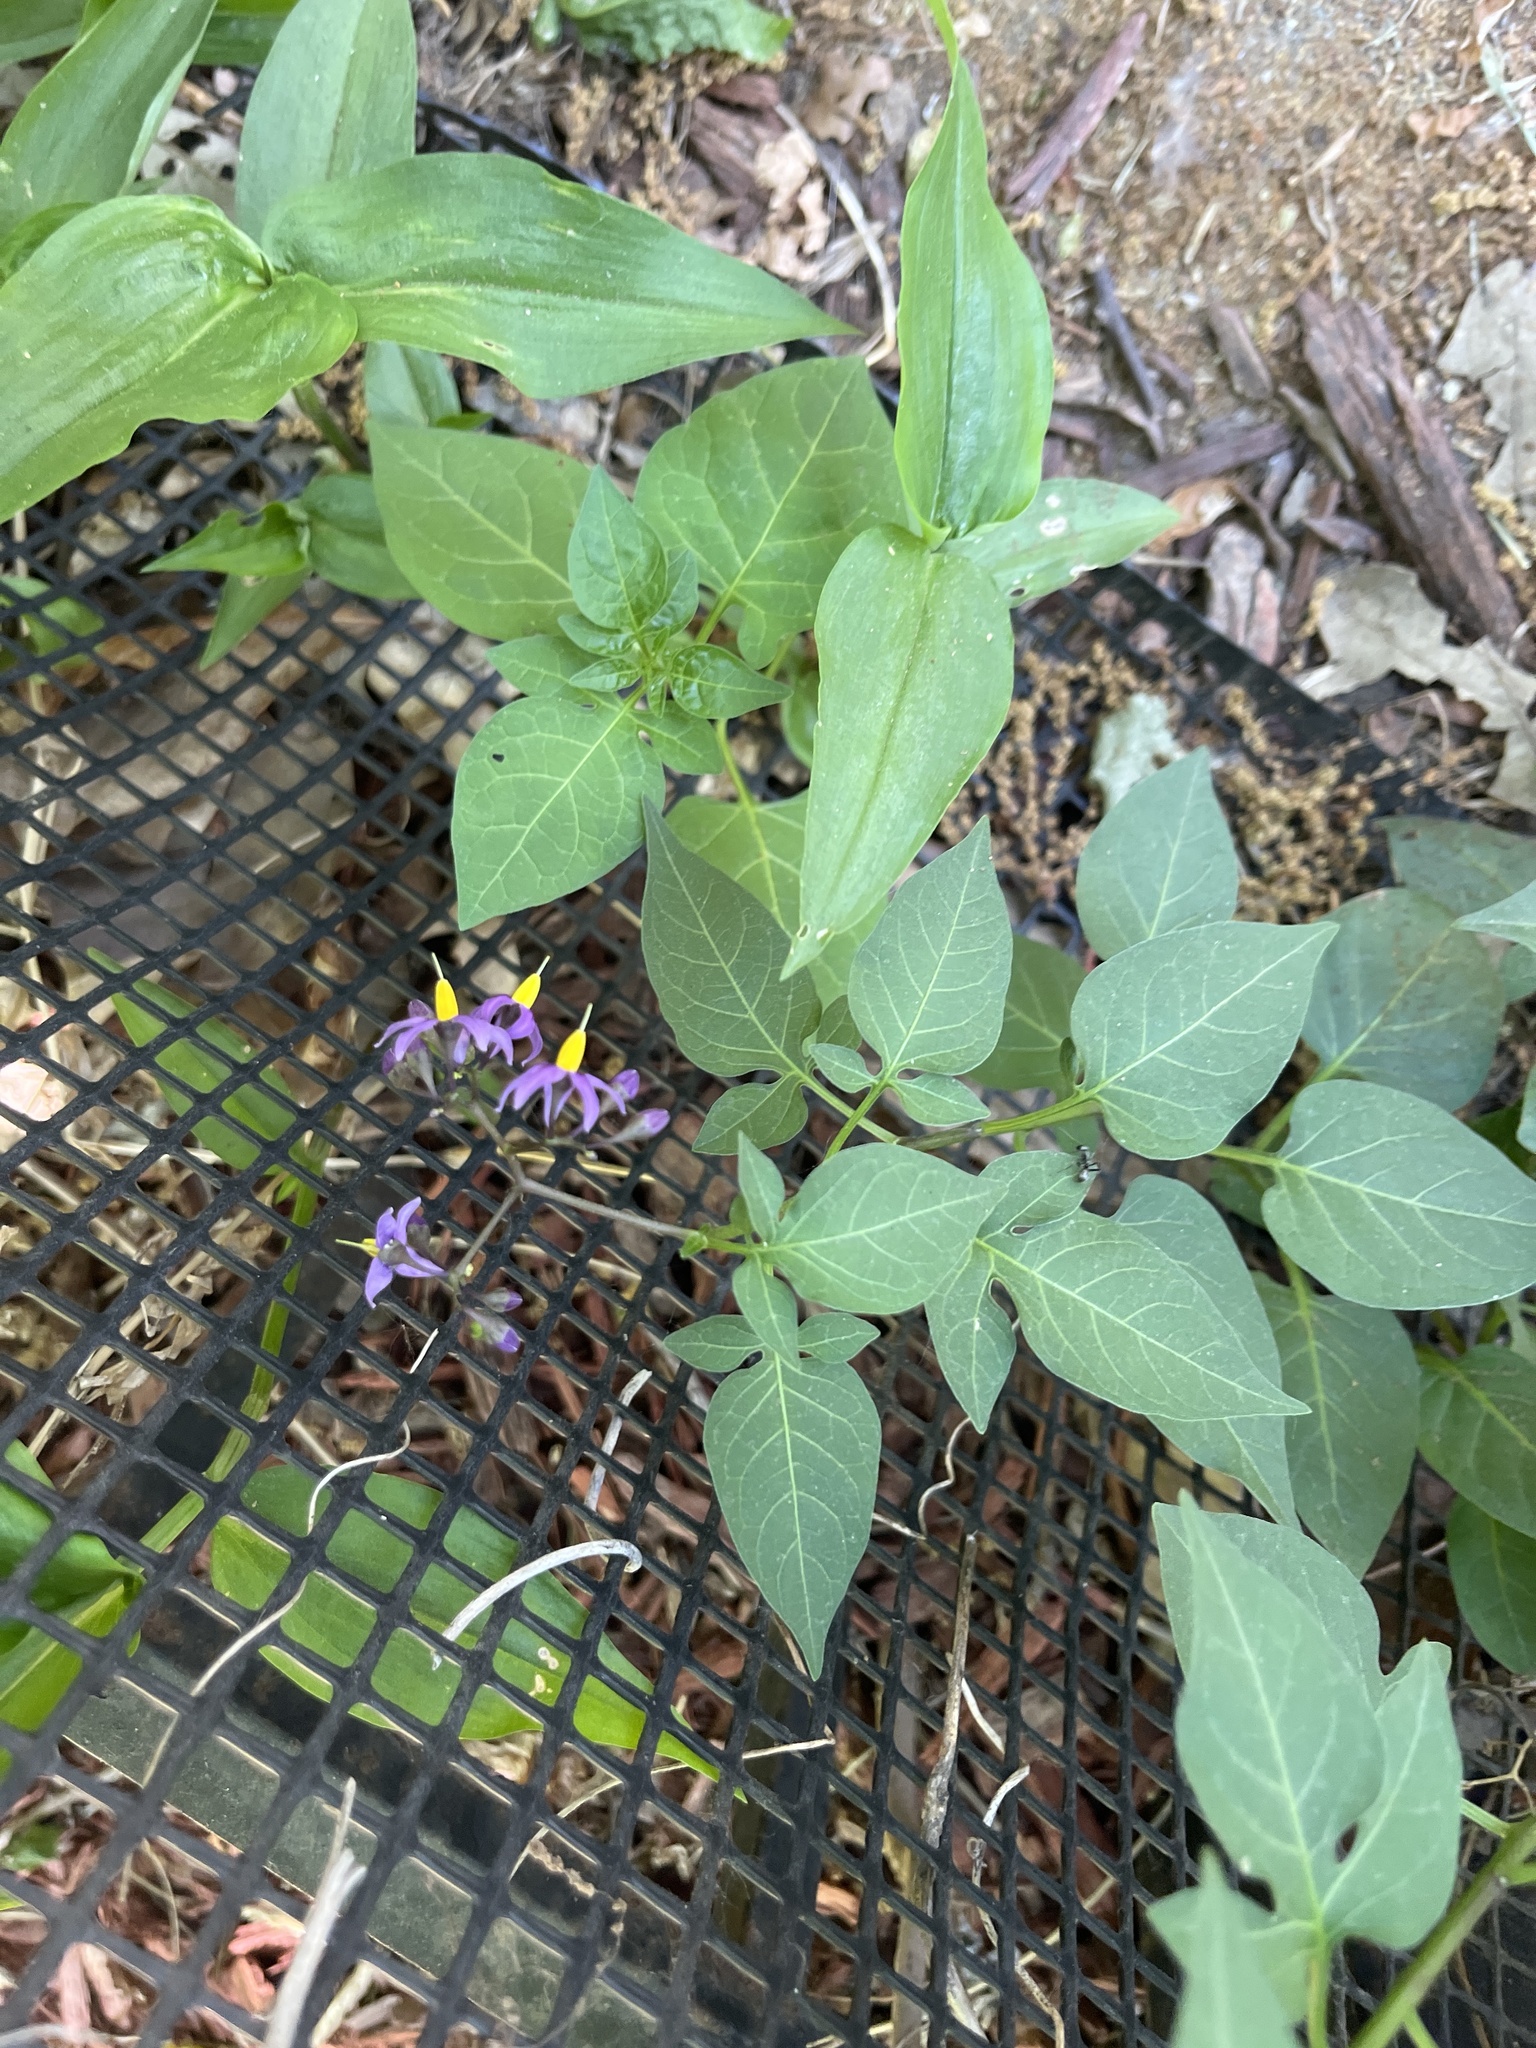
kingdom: Plantae
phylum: Tracheophyta
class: Magnoliopsida
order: Solanales
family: Solanaceae
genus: Solanum
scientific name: Solanum dulcamara
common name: Climbing nightshade
